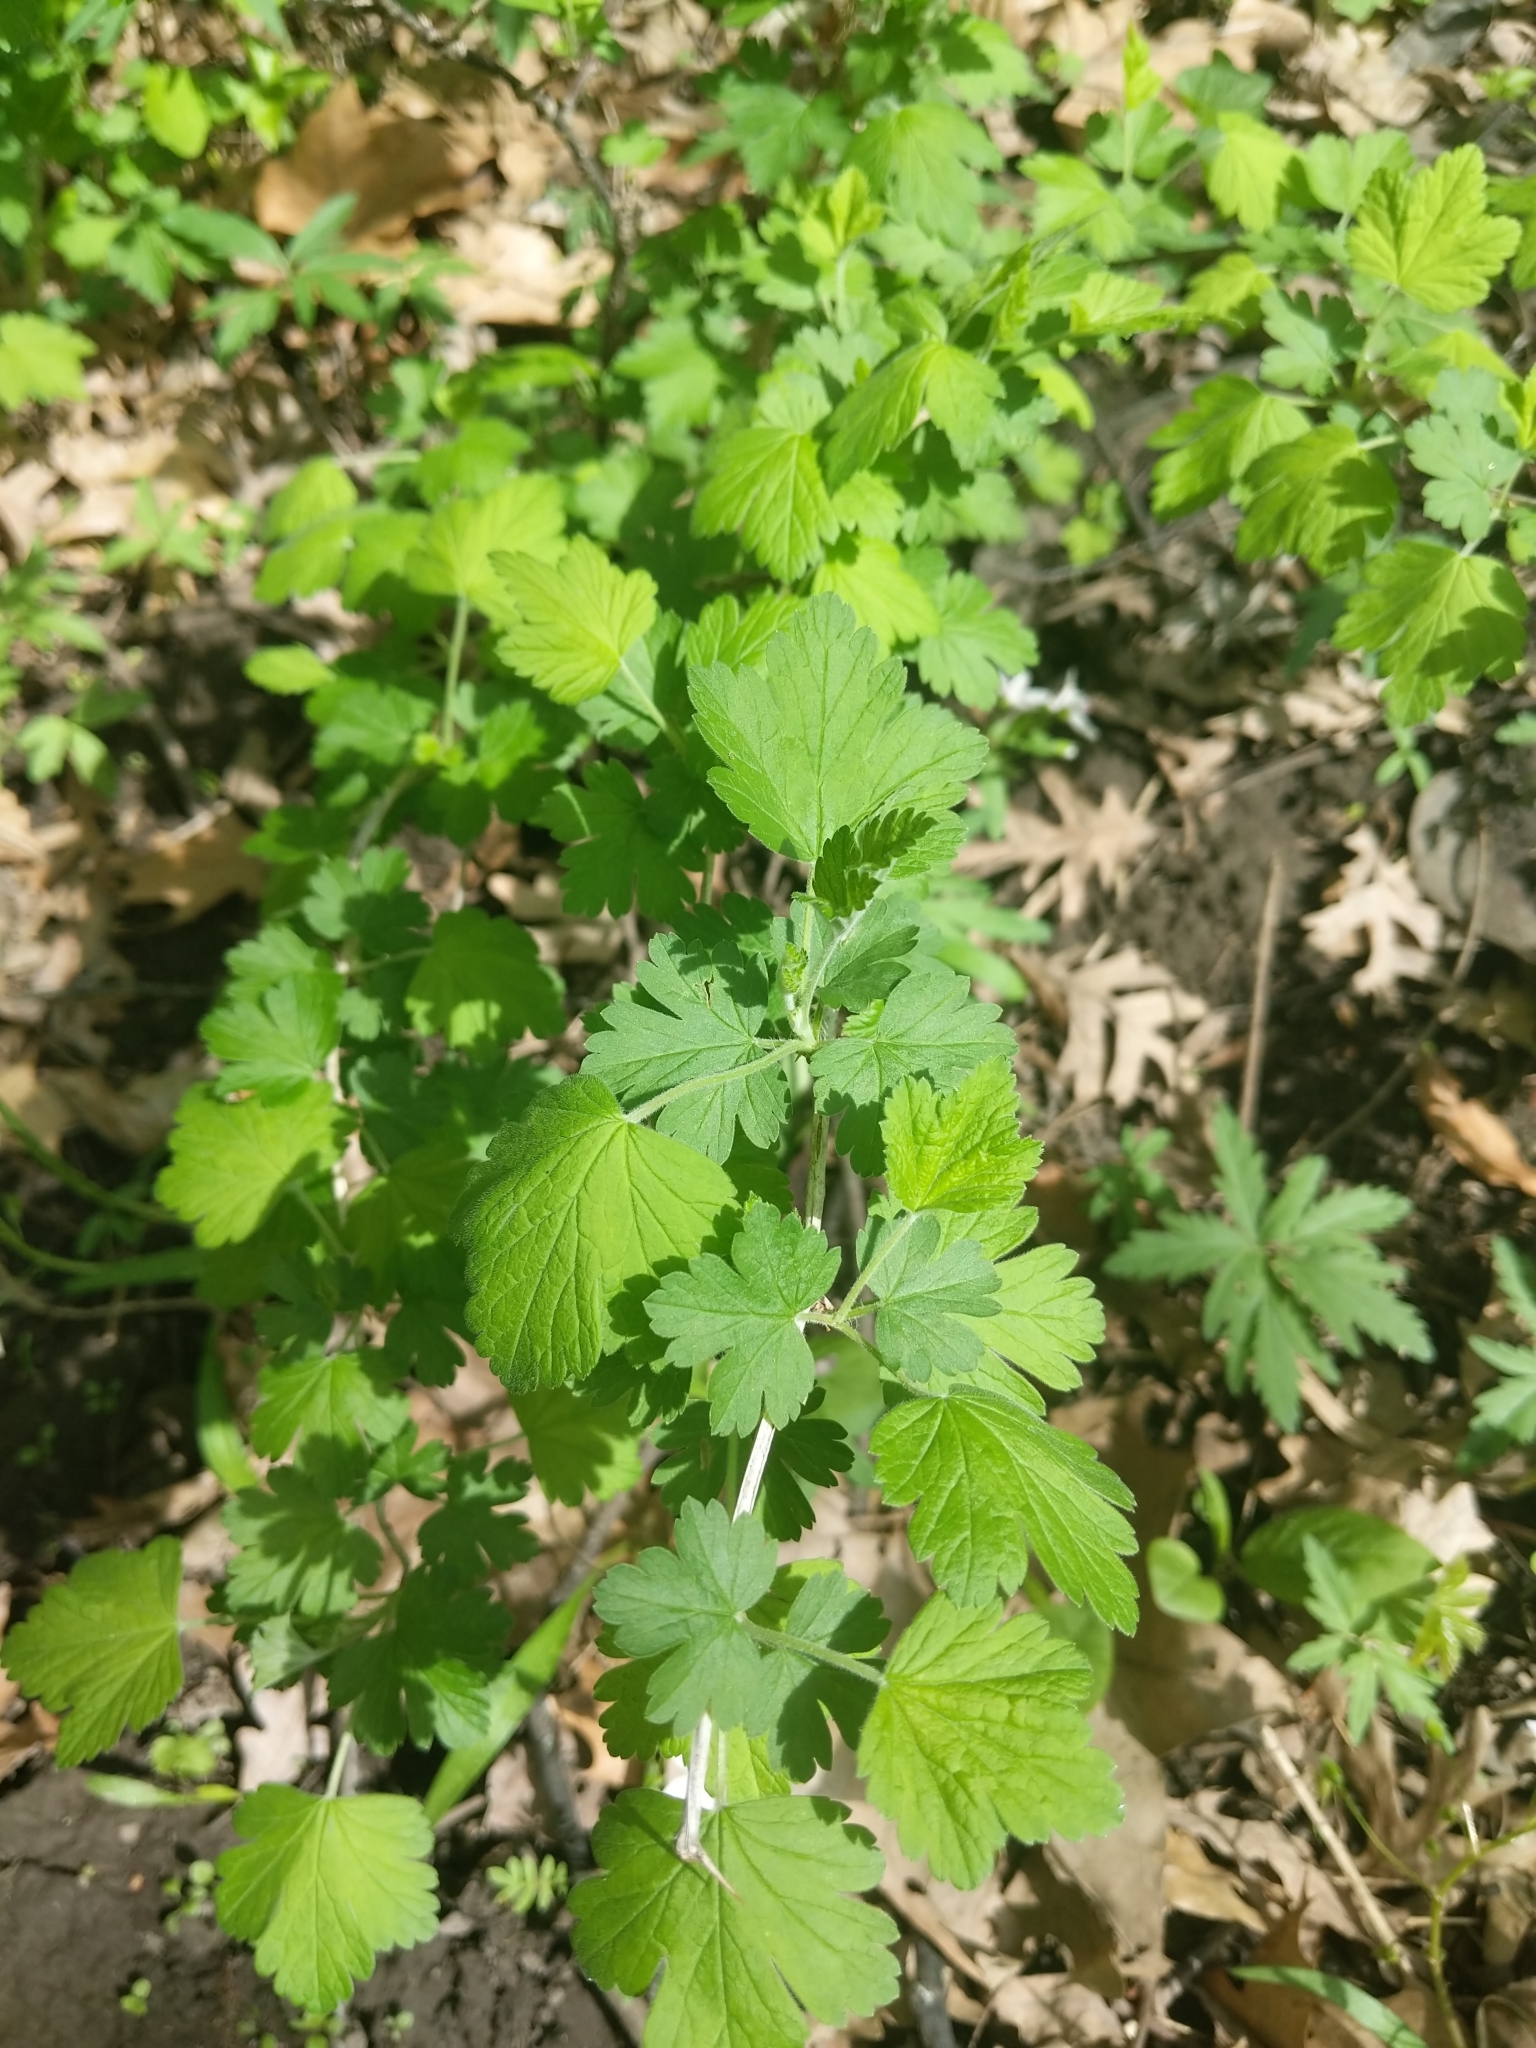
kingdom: Plantae
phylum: Tracheophyta
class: Magnoliopsida
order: Saxifragales
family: Grossulariaceae
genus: Ribes
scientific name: Ribes missouriense
